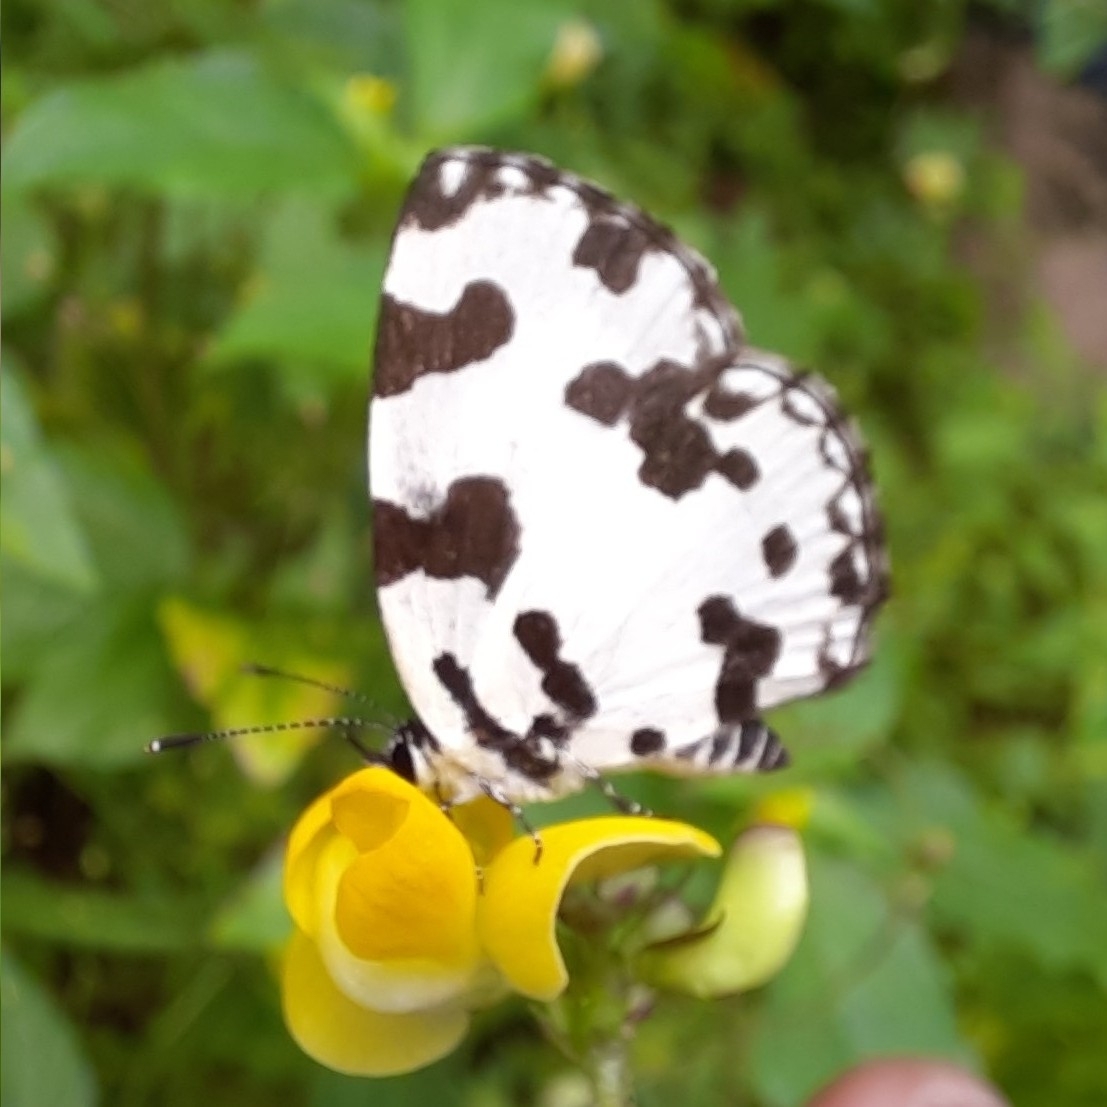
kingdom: Animalia
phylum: Arthropoda
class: Insecta
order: Lepidoptera
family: Lycaenidae
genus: Caleta
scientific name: Caleta decidia
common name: Angled pierrot
